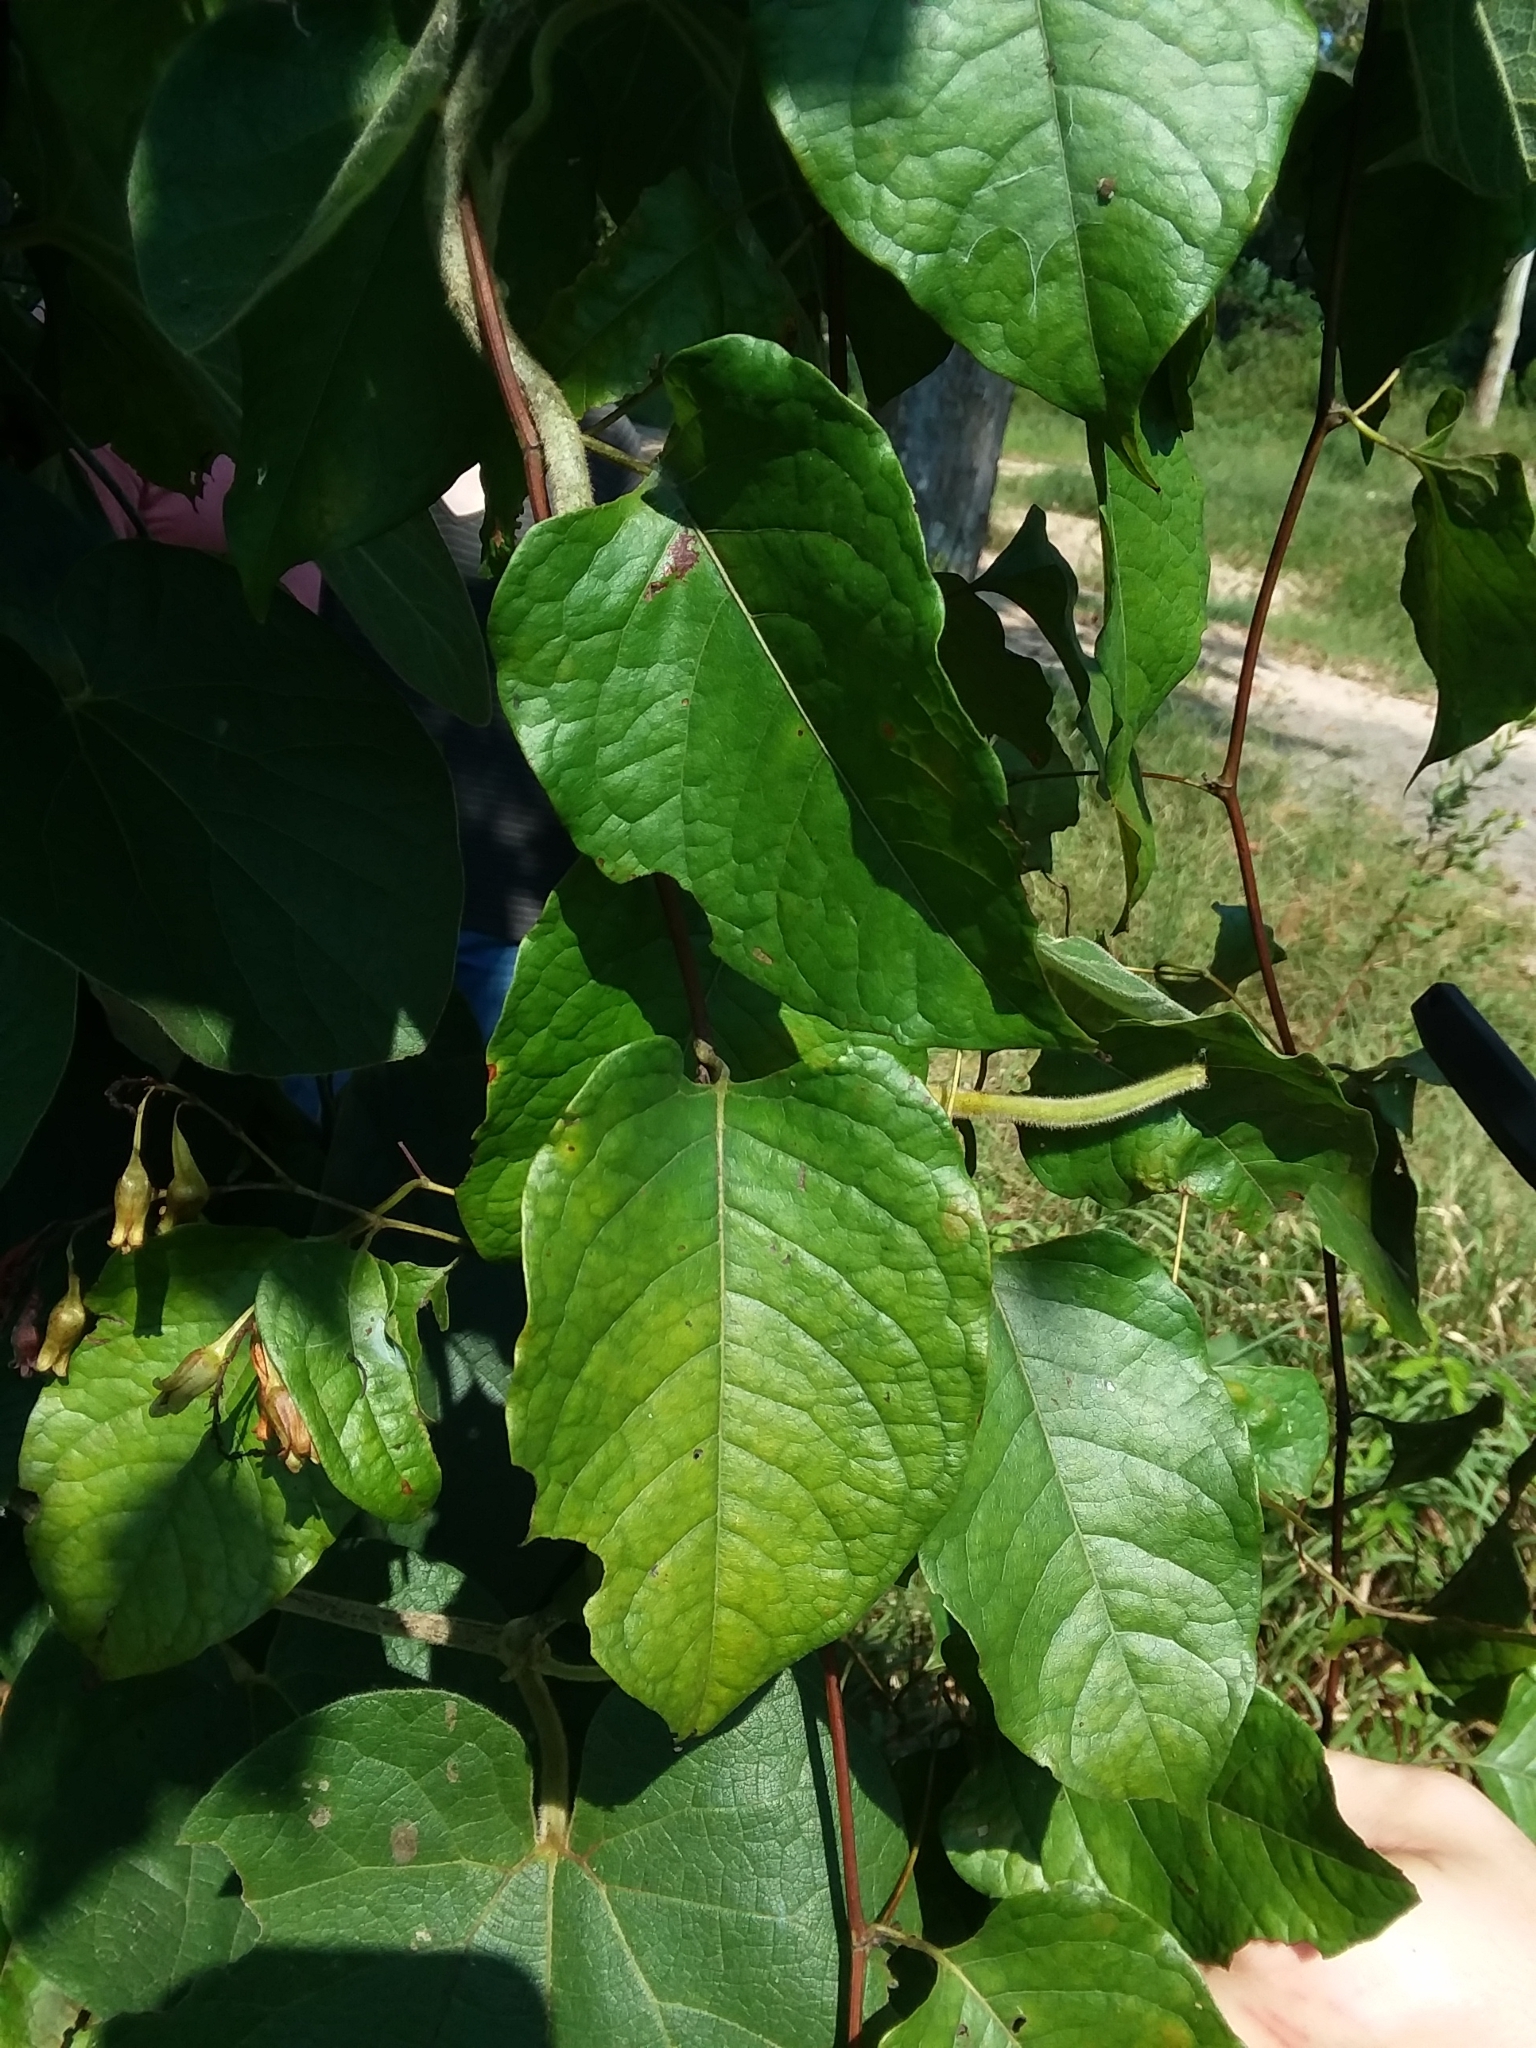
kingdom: Plantae
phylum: Tracheophyta
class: Magnoliopsida
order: Caryophyllales
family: Polygonaceae
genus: Brunnichia
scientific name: Brunnichia ovata
